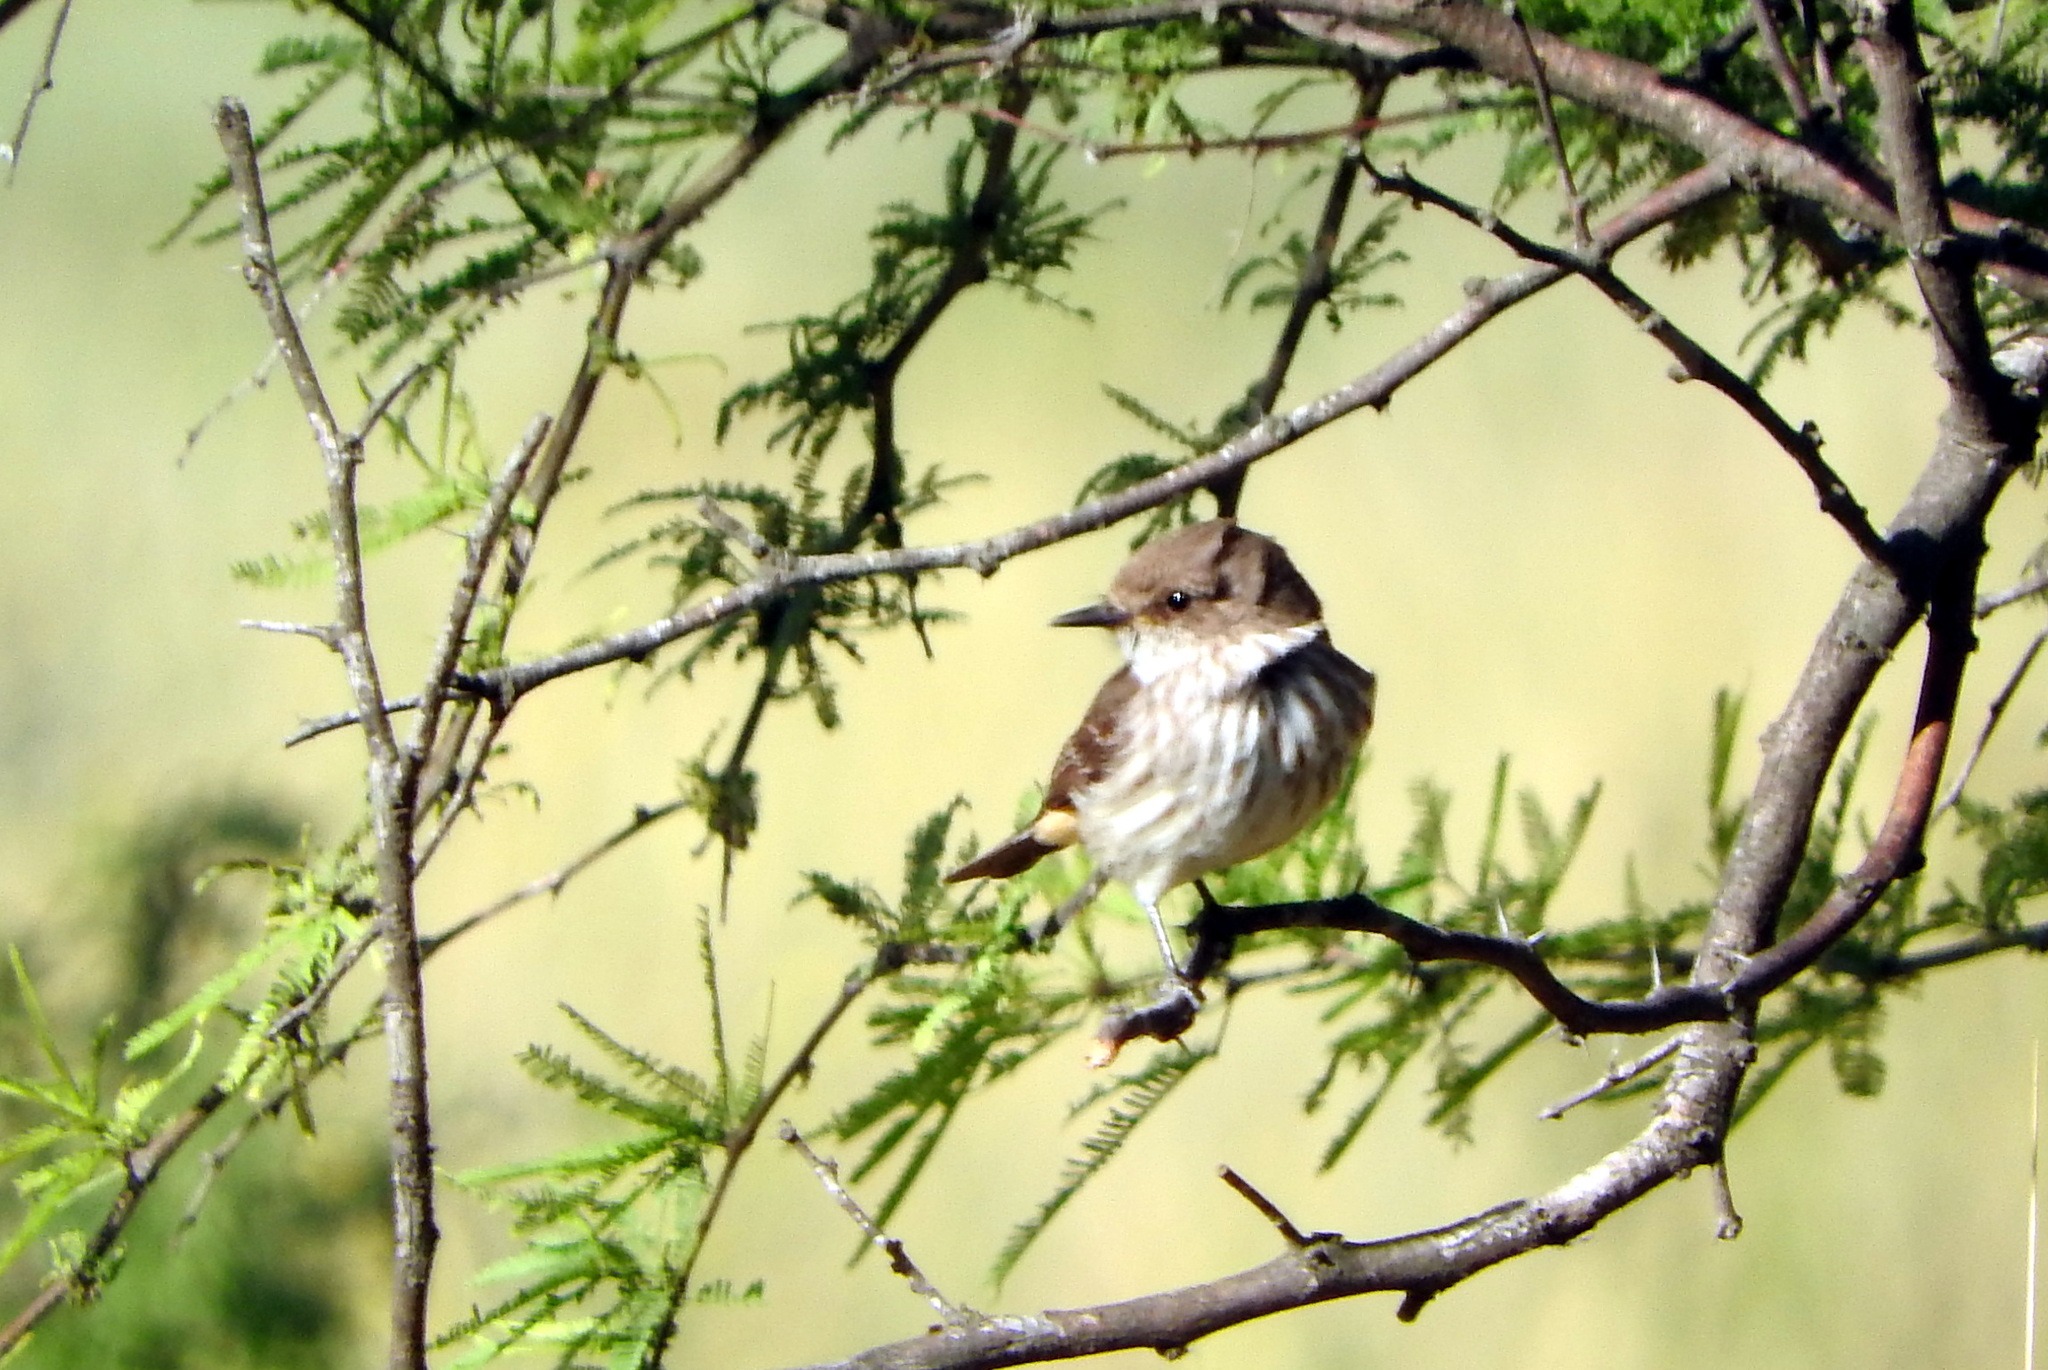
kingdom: Animalia
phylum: Chordata
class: Aves
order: Passeriformes
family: Tyrannidae
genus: Pyrocephalus
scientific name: Pyrocephalus rubinus
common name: Vermilion flycatcher
